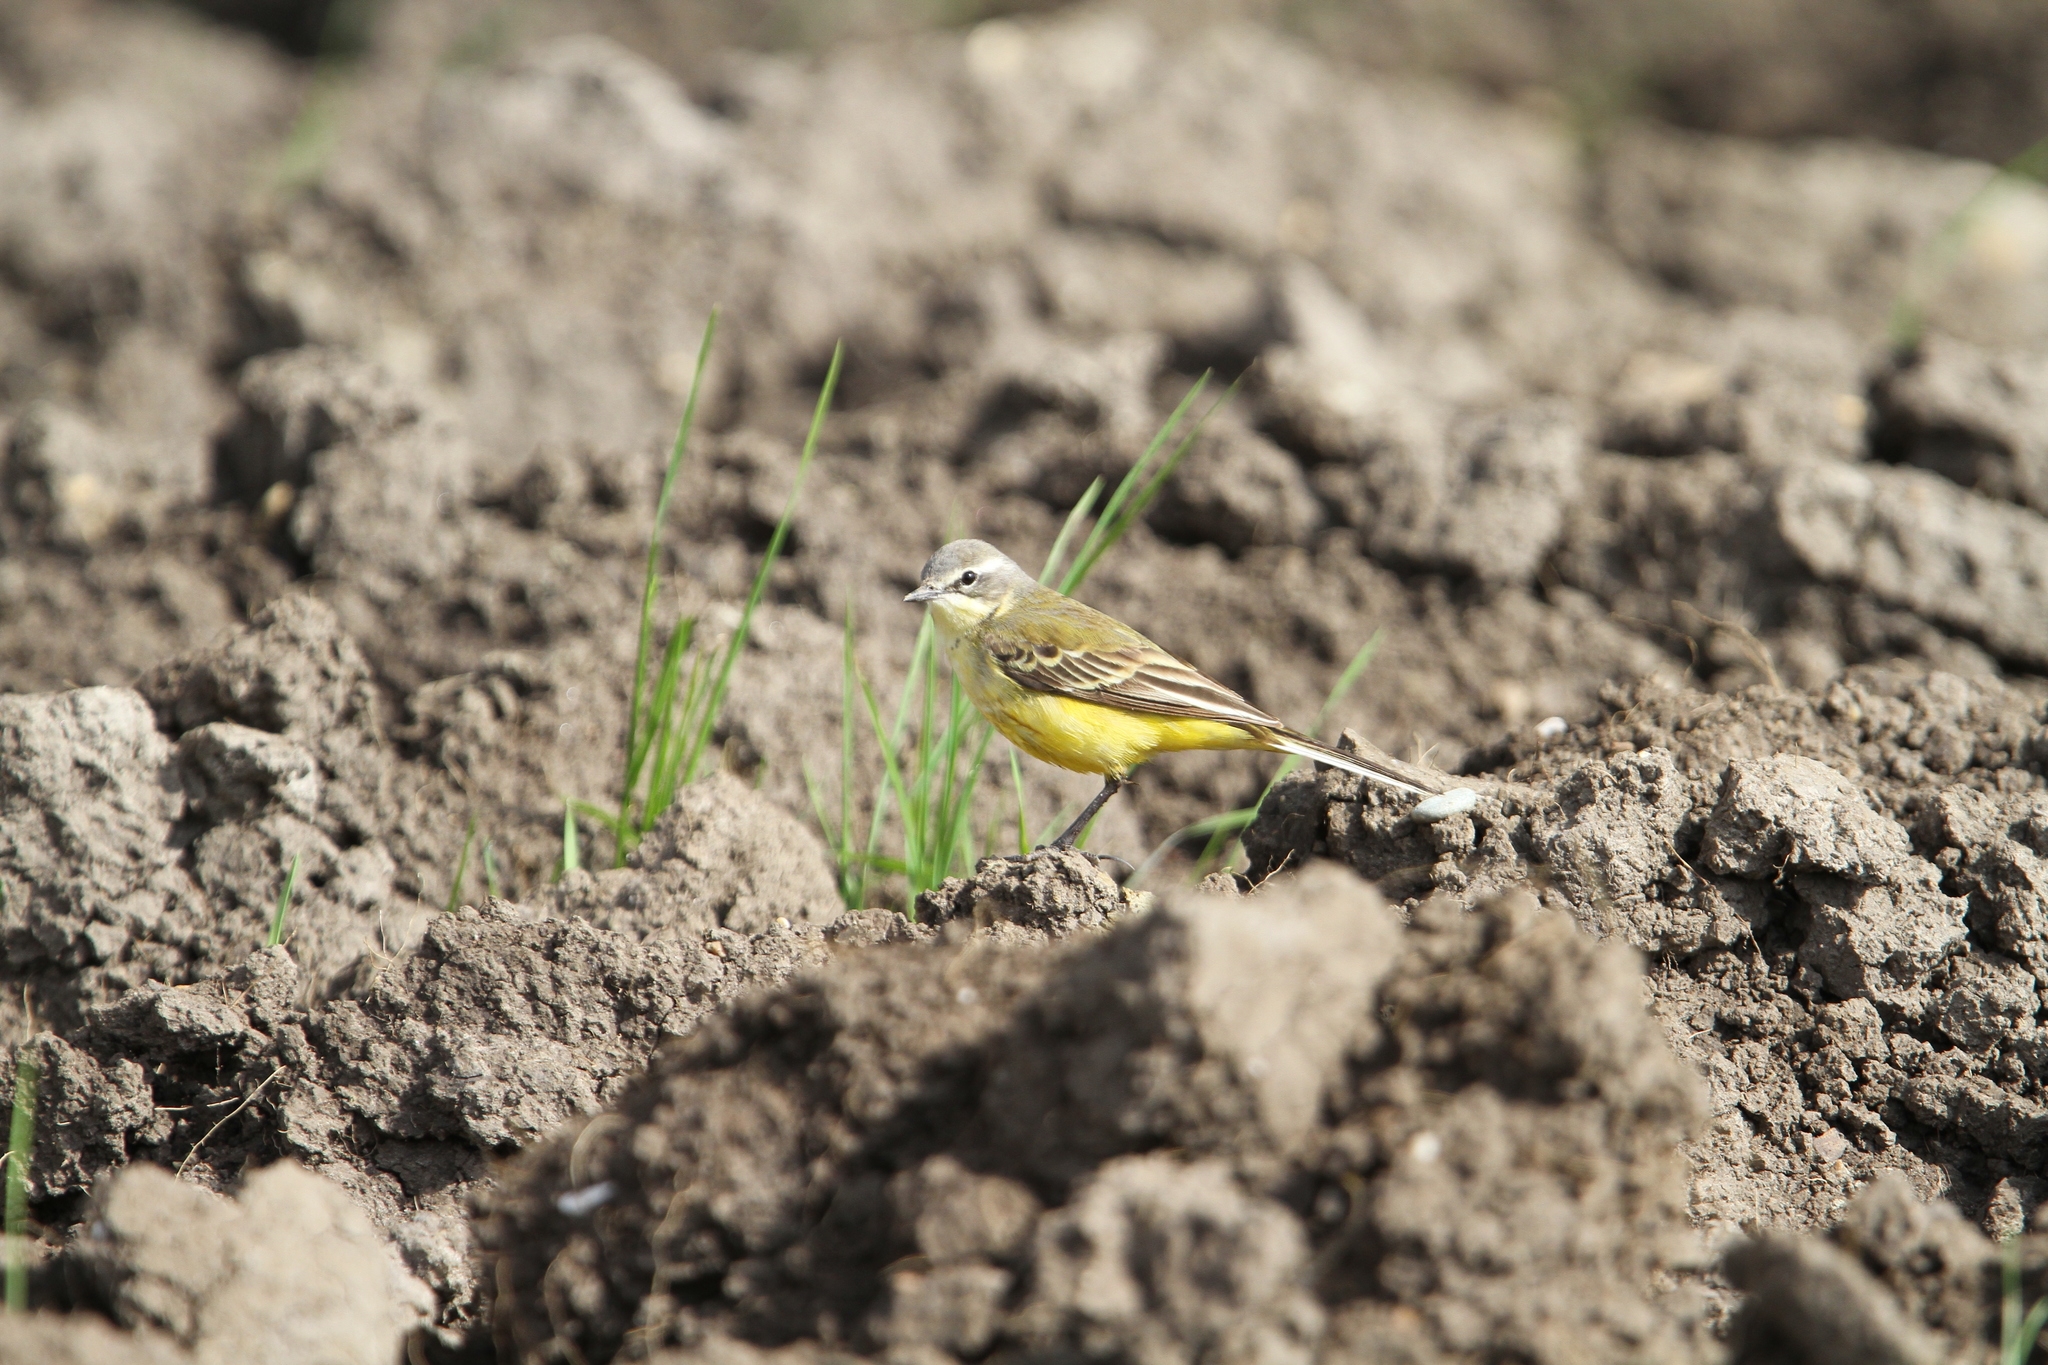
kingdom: Animalia
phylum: Chordata
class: Aves
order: Passeriformes
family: Motacillidae
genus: Motacilla
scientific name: Motacilla flava
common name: Western yellow wagtail
